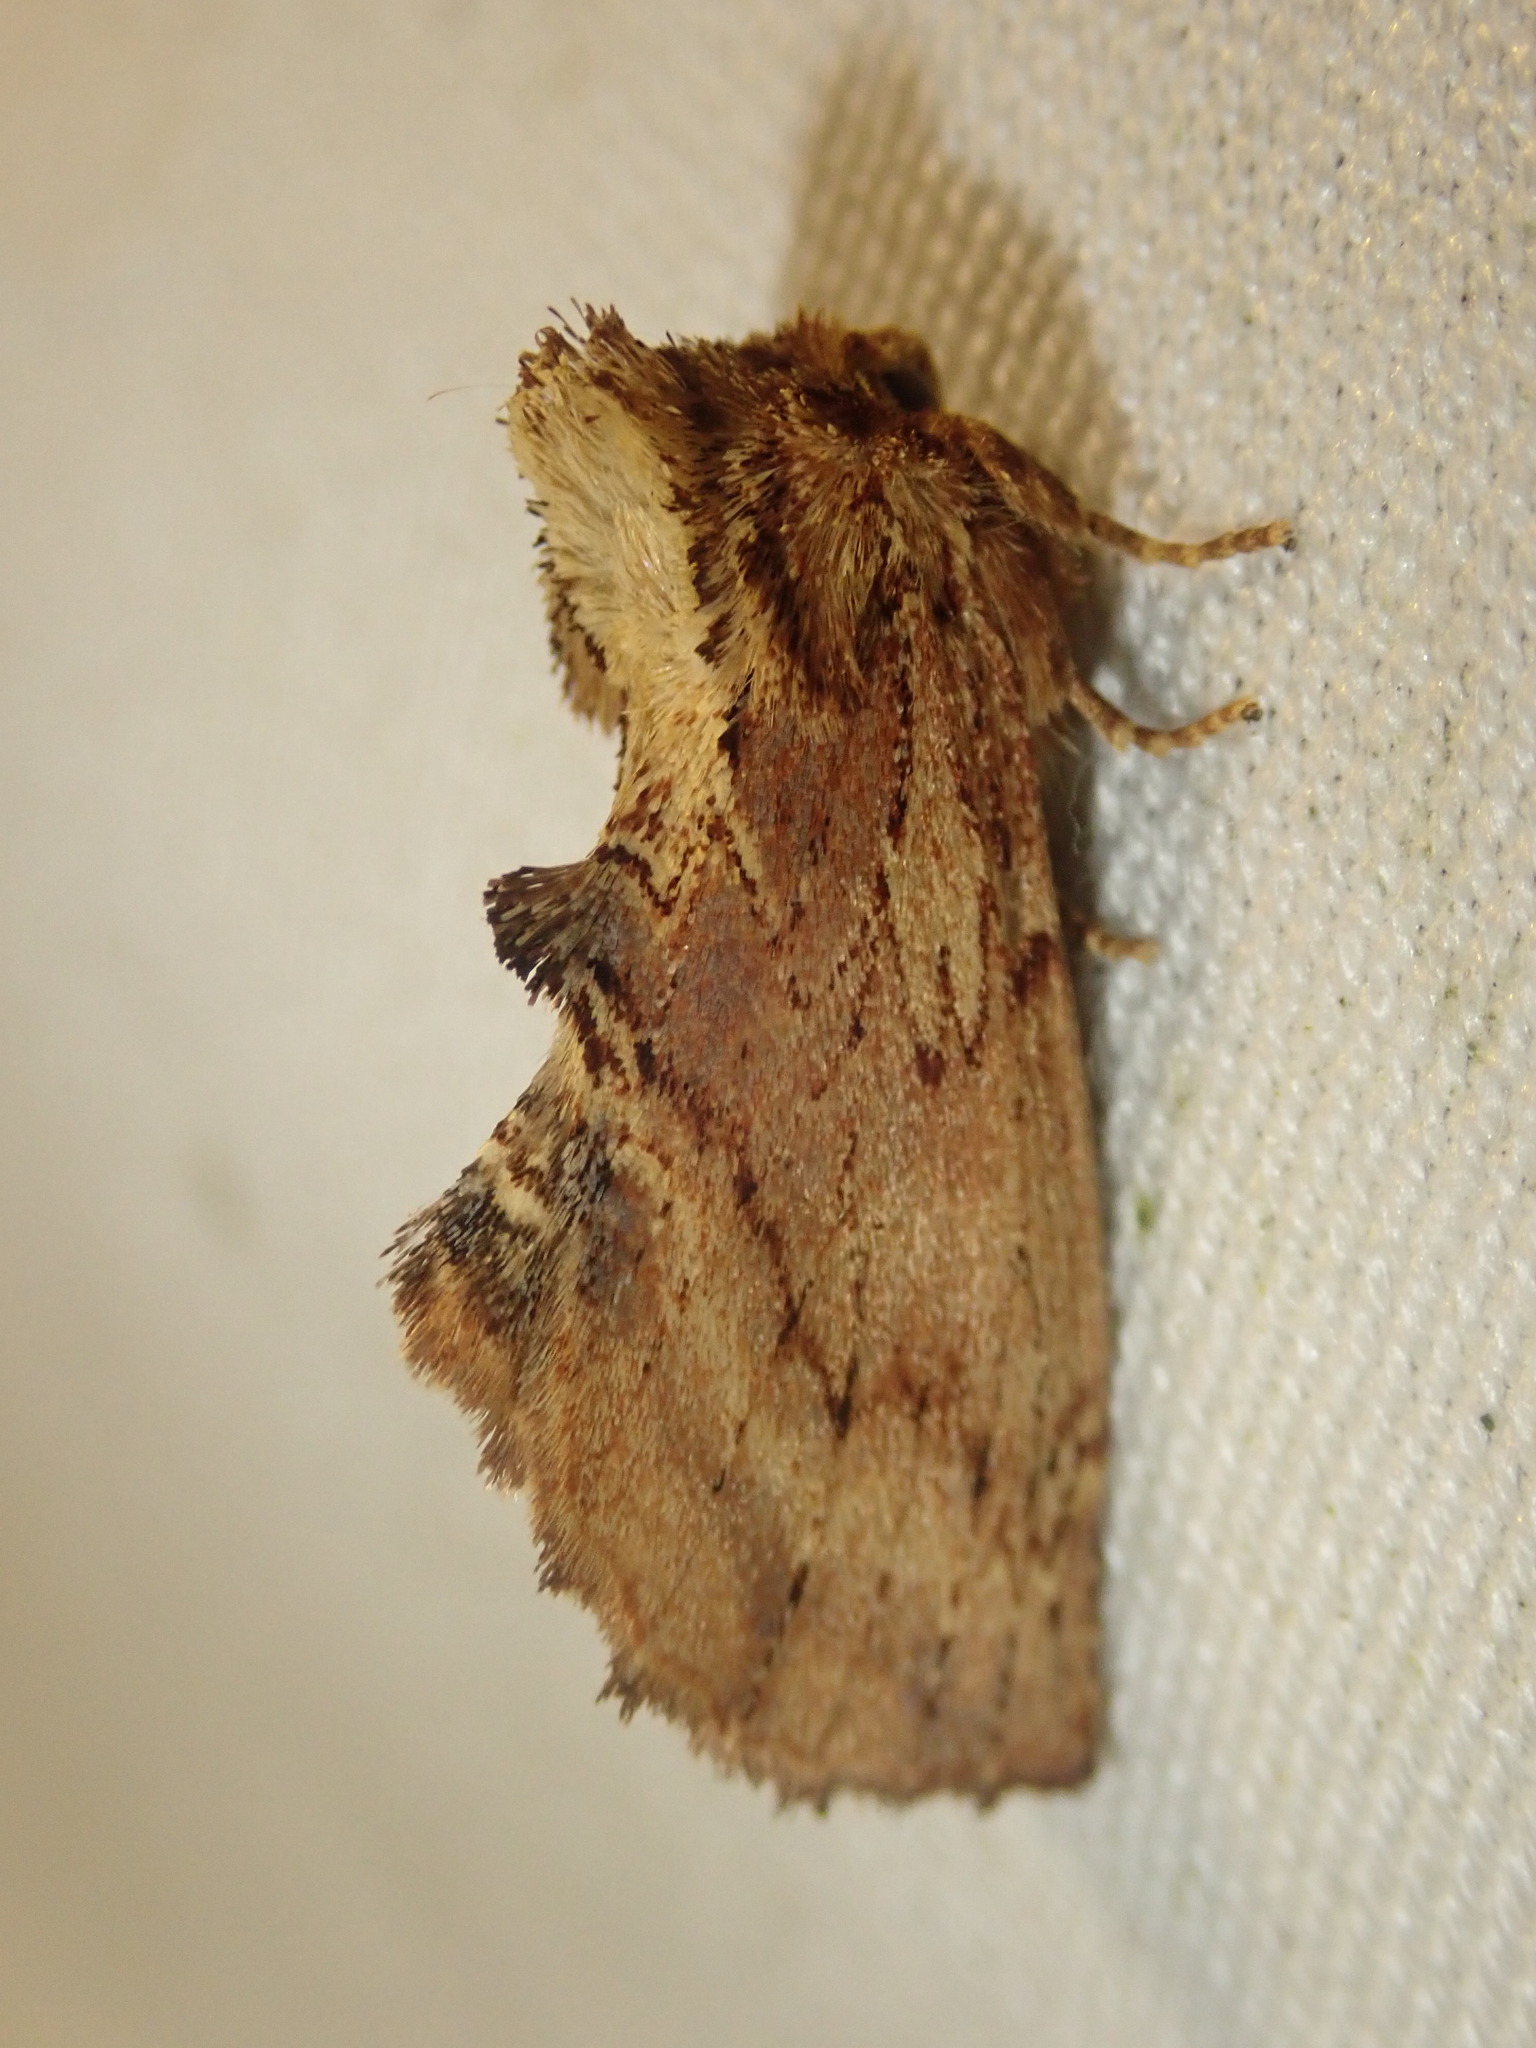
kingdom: Animalia
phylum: Arthropoda
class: Insecta
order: Lepidoptera
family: Notodontidae
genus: Ptilodon
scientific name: Ptilodon capucina
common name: Coxcomb prominent
